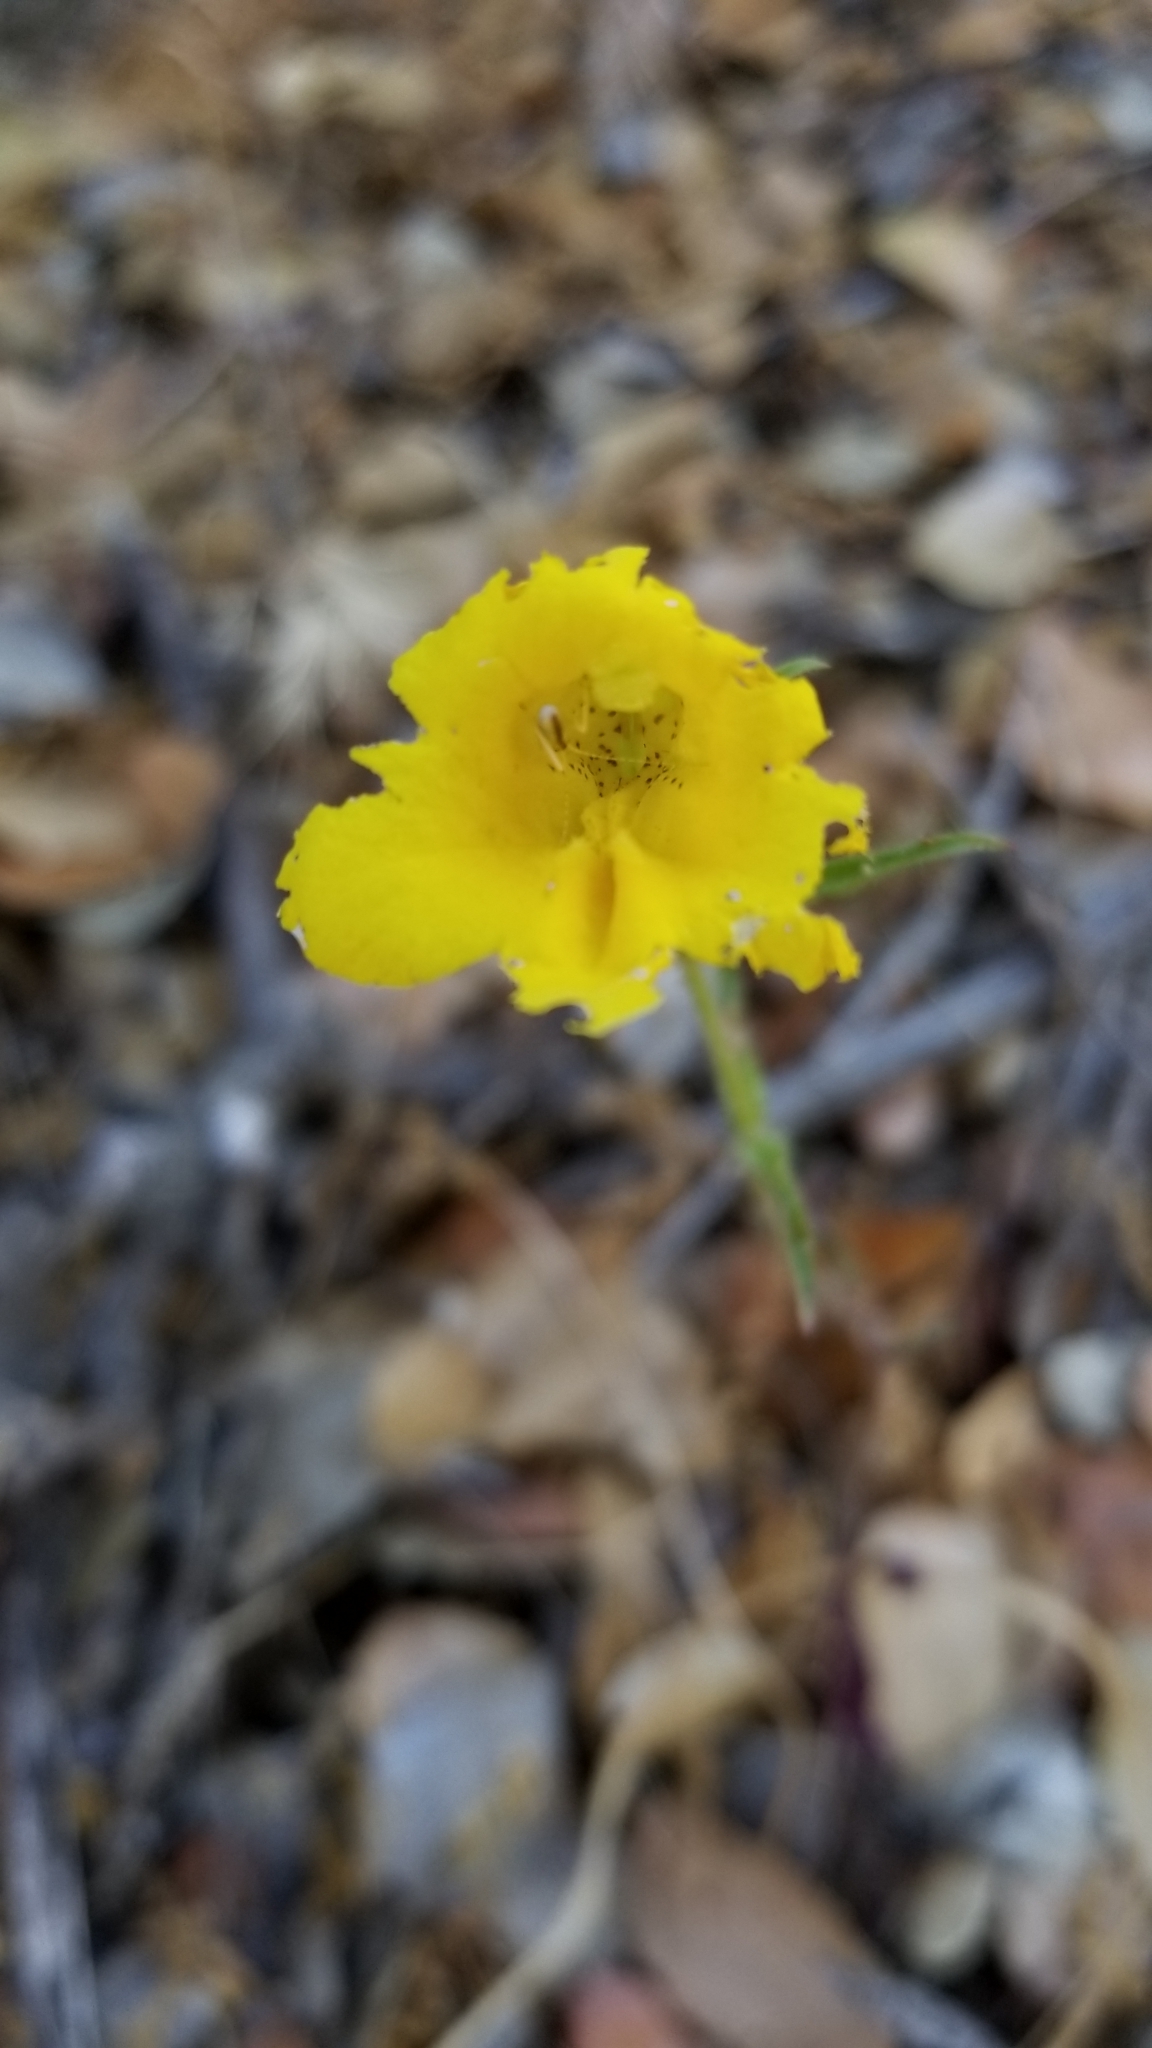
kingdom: Plantae
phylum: Tracheophyta
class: Magnoliopsida
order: Lamiales
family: Phrymaceae
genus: Diplacus
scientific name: Diplacus brevipes
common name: Wide-throat yellow monkey-flower
